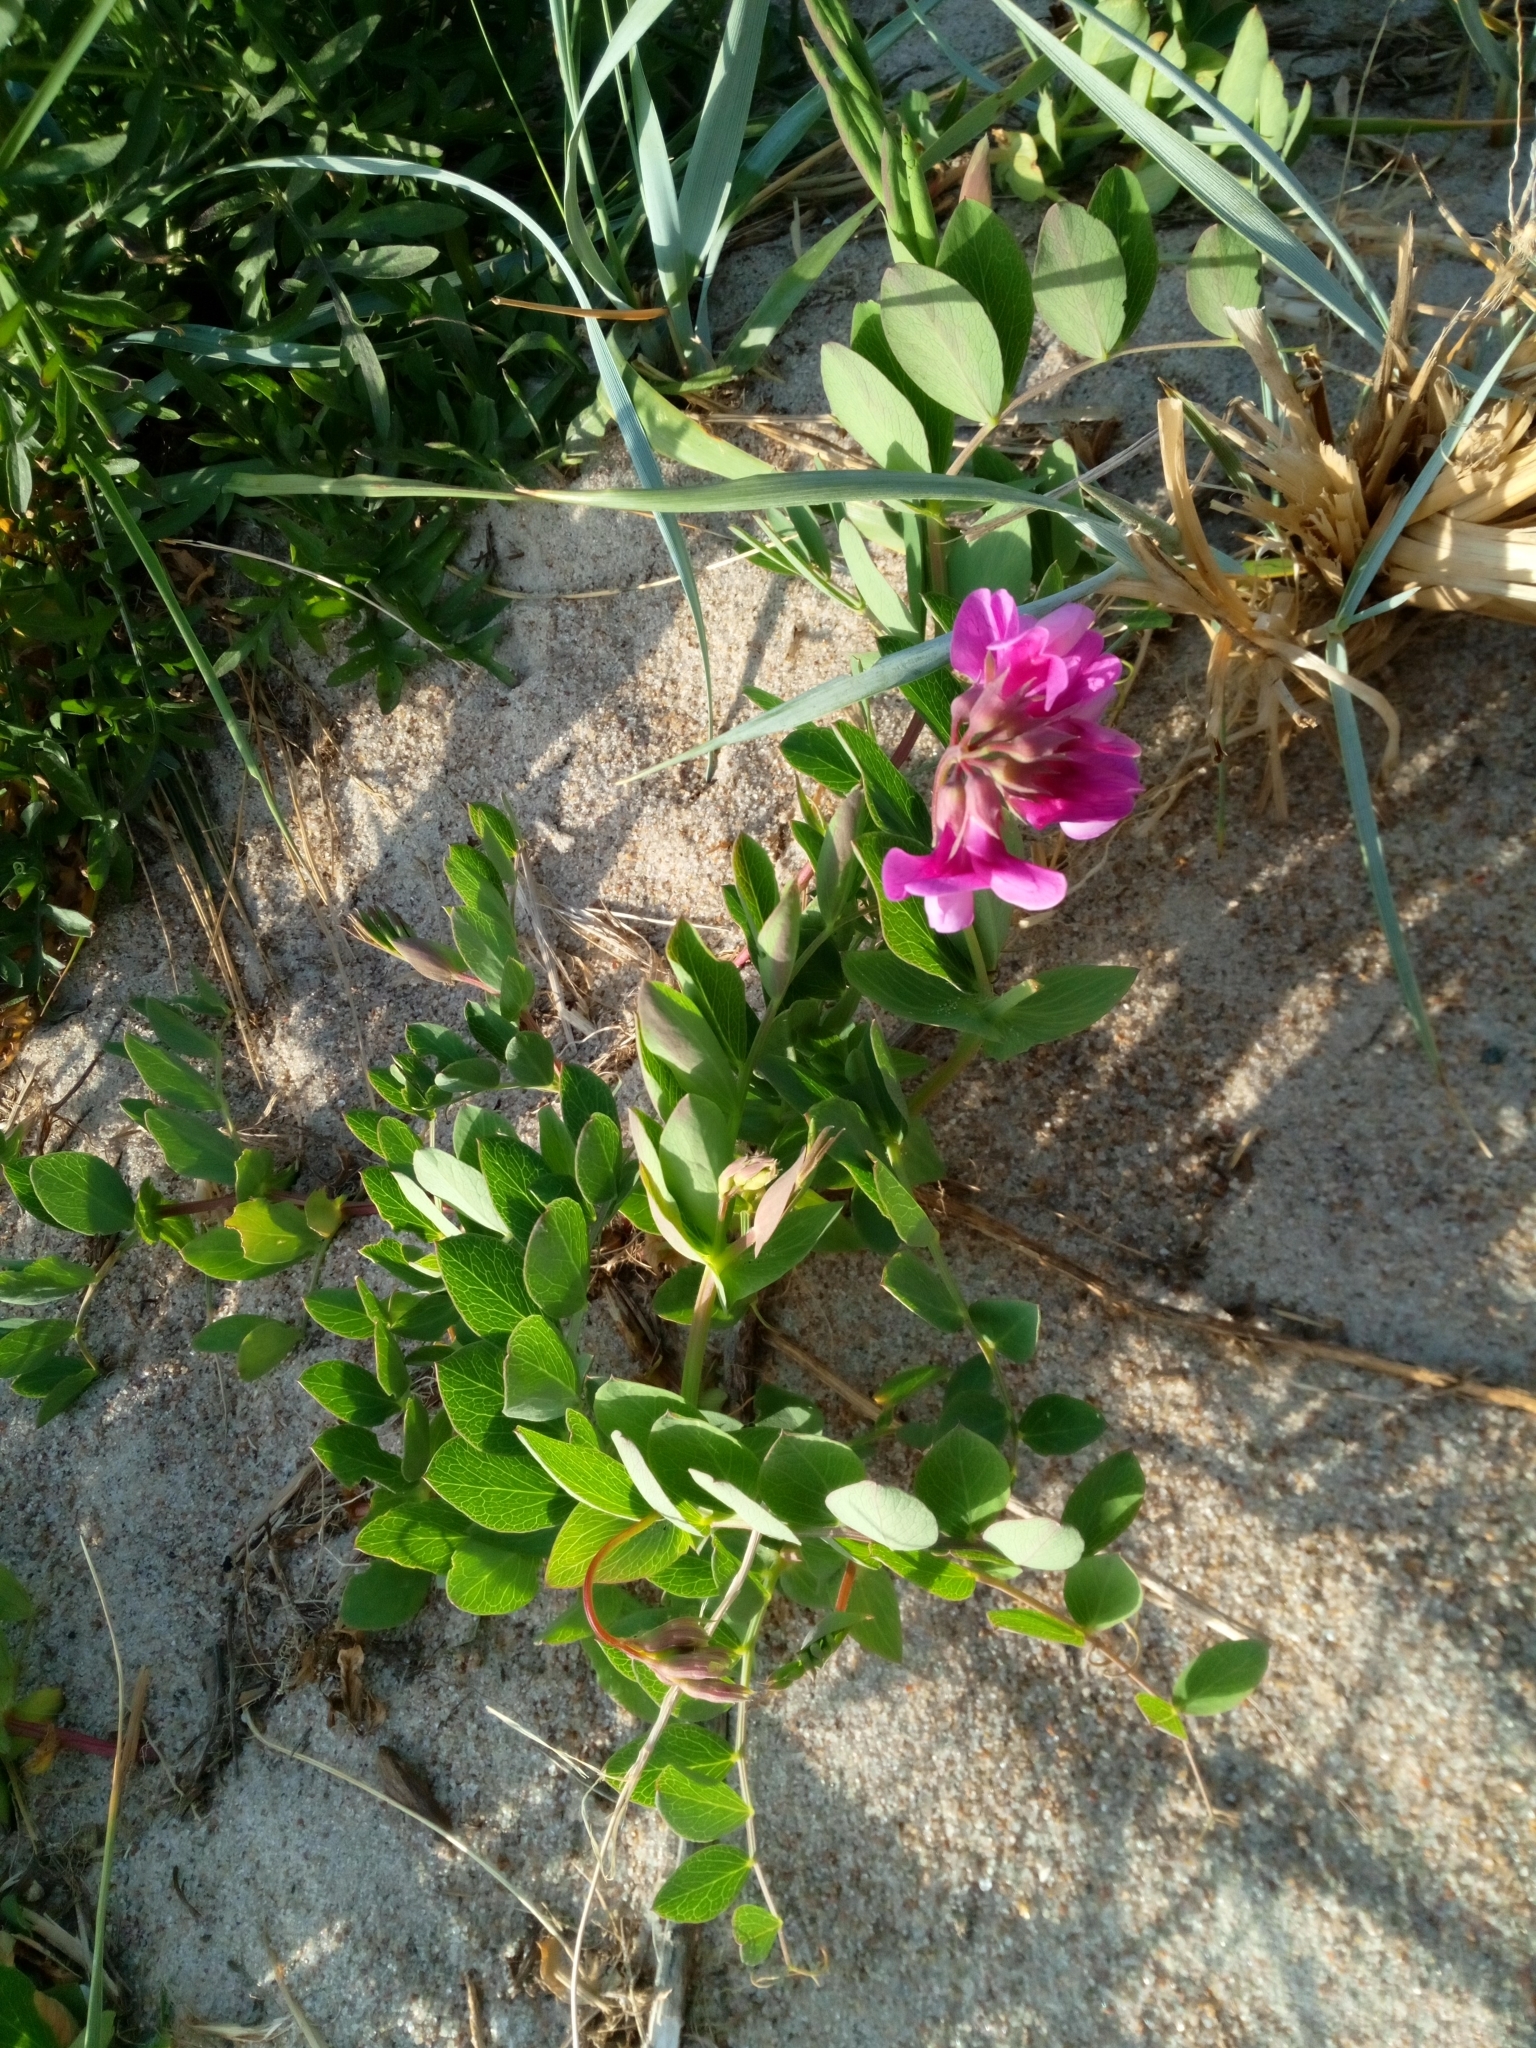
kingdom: Plantae
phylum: Tracheophyta
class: Magnoliopsida
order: Fabales
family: Fabaceae
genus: Lathyrus
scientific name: Lathyrus japonicus
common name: Sea pea
